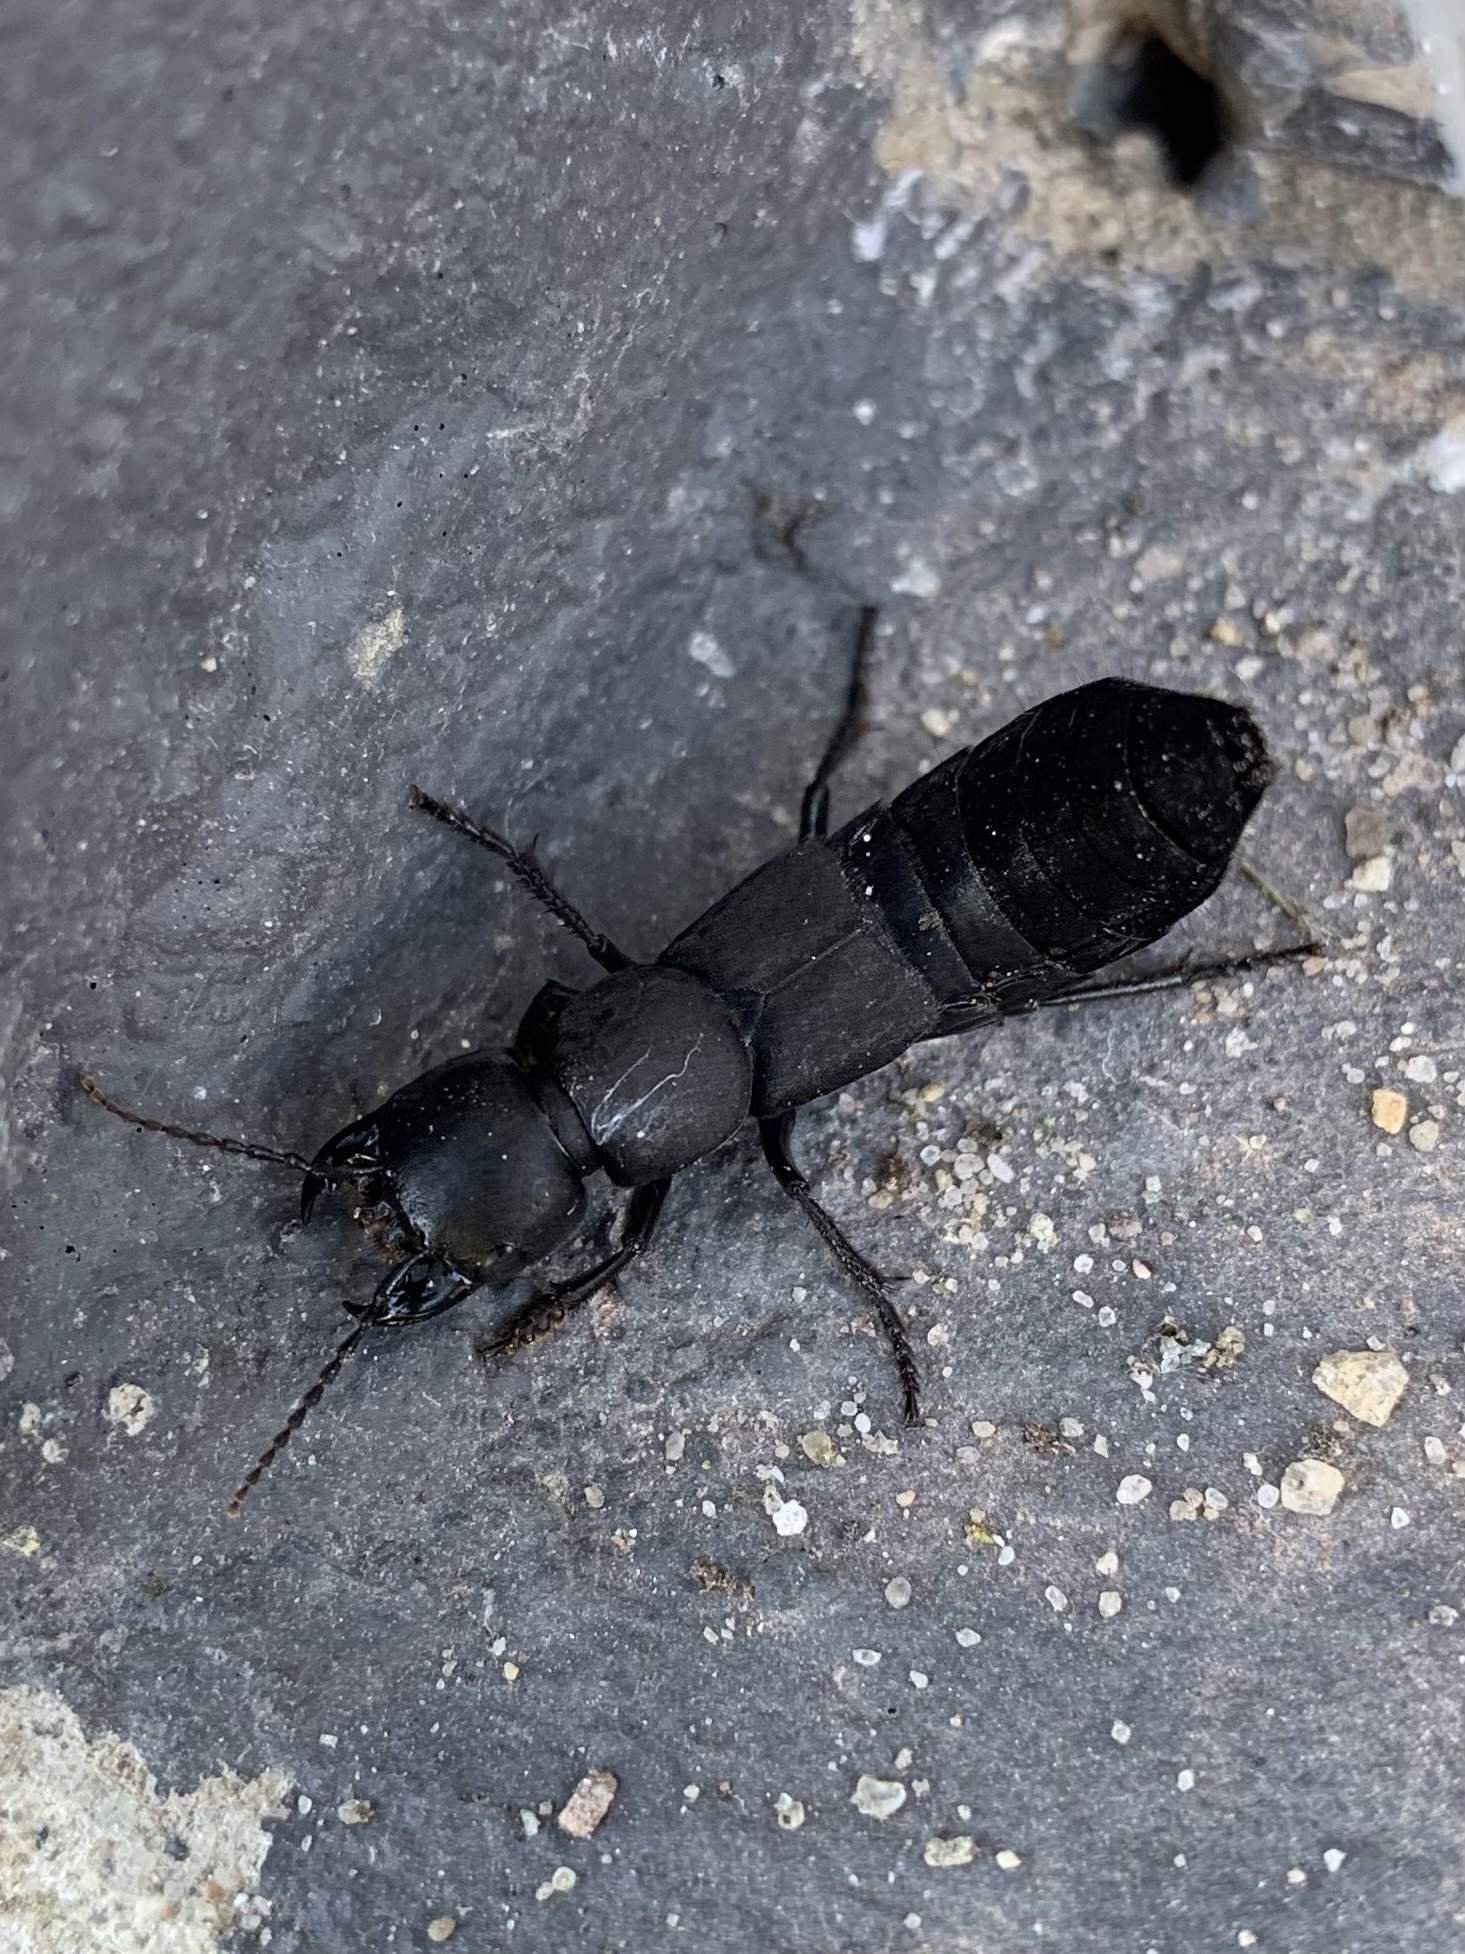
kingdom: Animalia
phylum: Arthropoda
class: Insecta
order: Coleoptera
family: Staphylinidae
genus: Ocypus
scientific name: Ocypus olens
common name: Devil's coach-horse
